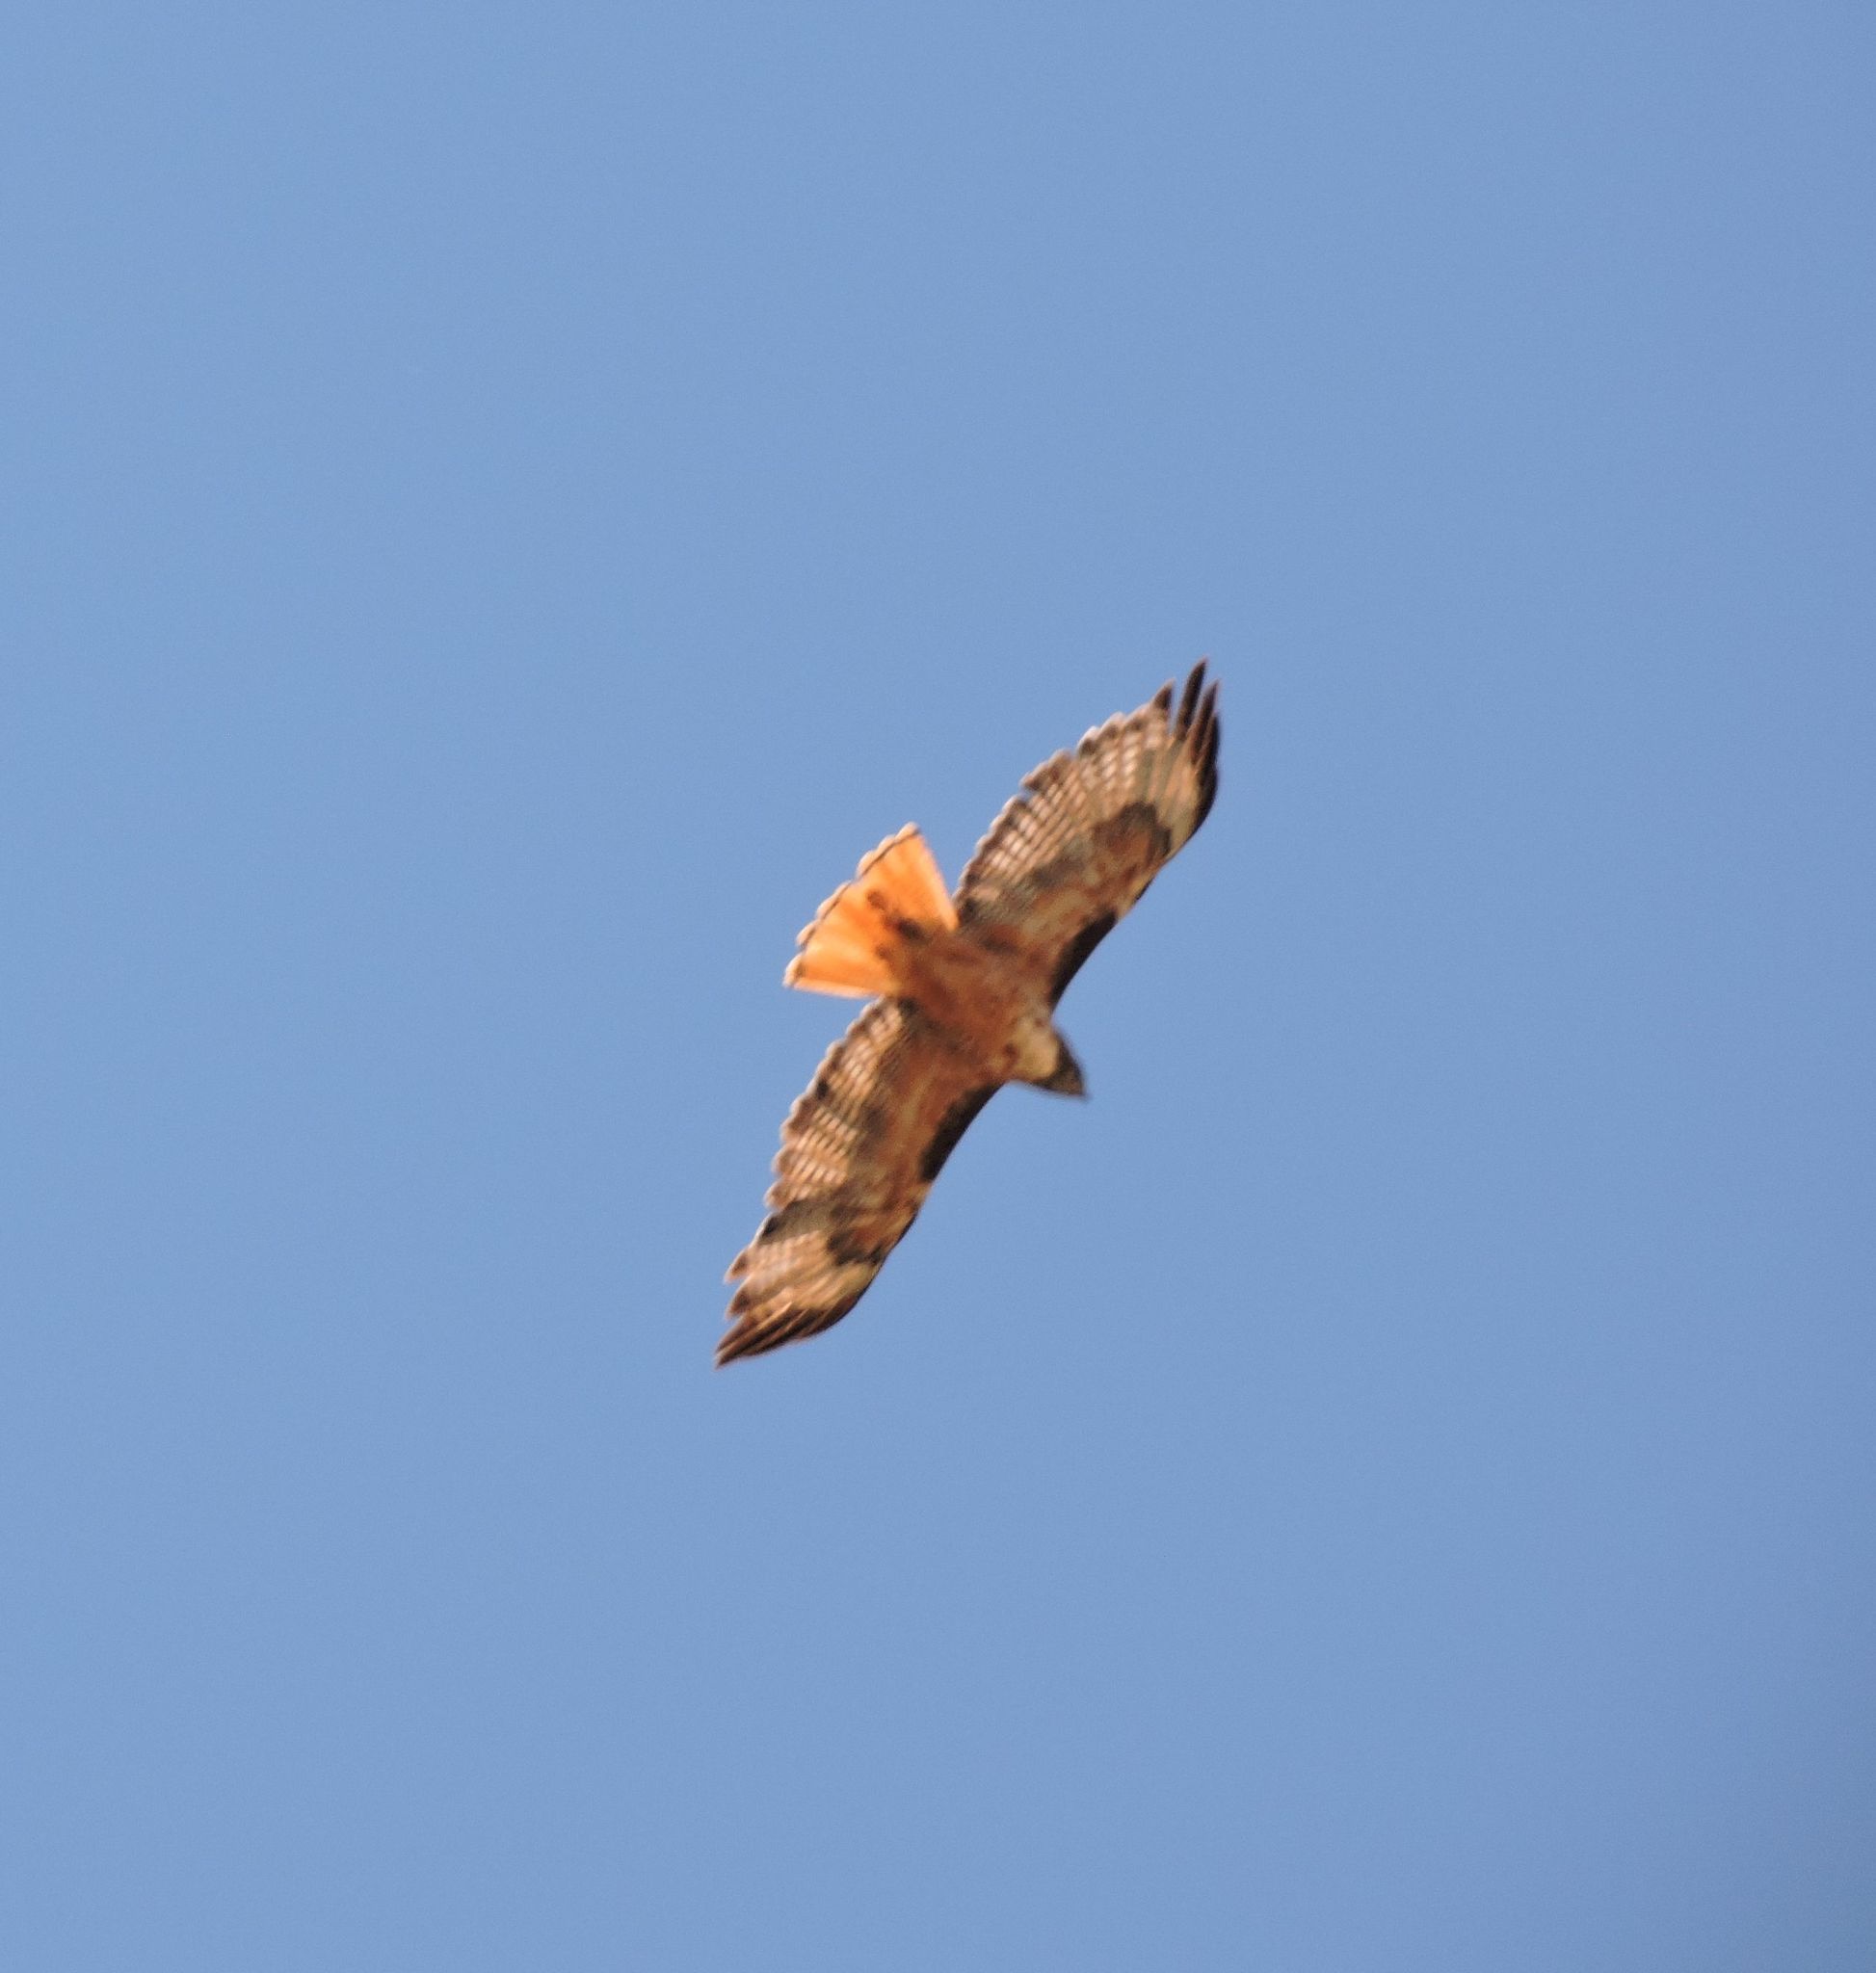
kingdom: Animalia
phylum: Chordata
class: Aves
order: Accipitriformes
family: Accipitridae
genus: Buteo
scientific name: Buteo jamaicensis
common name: Red-tailed hawk
